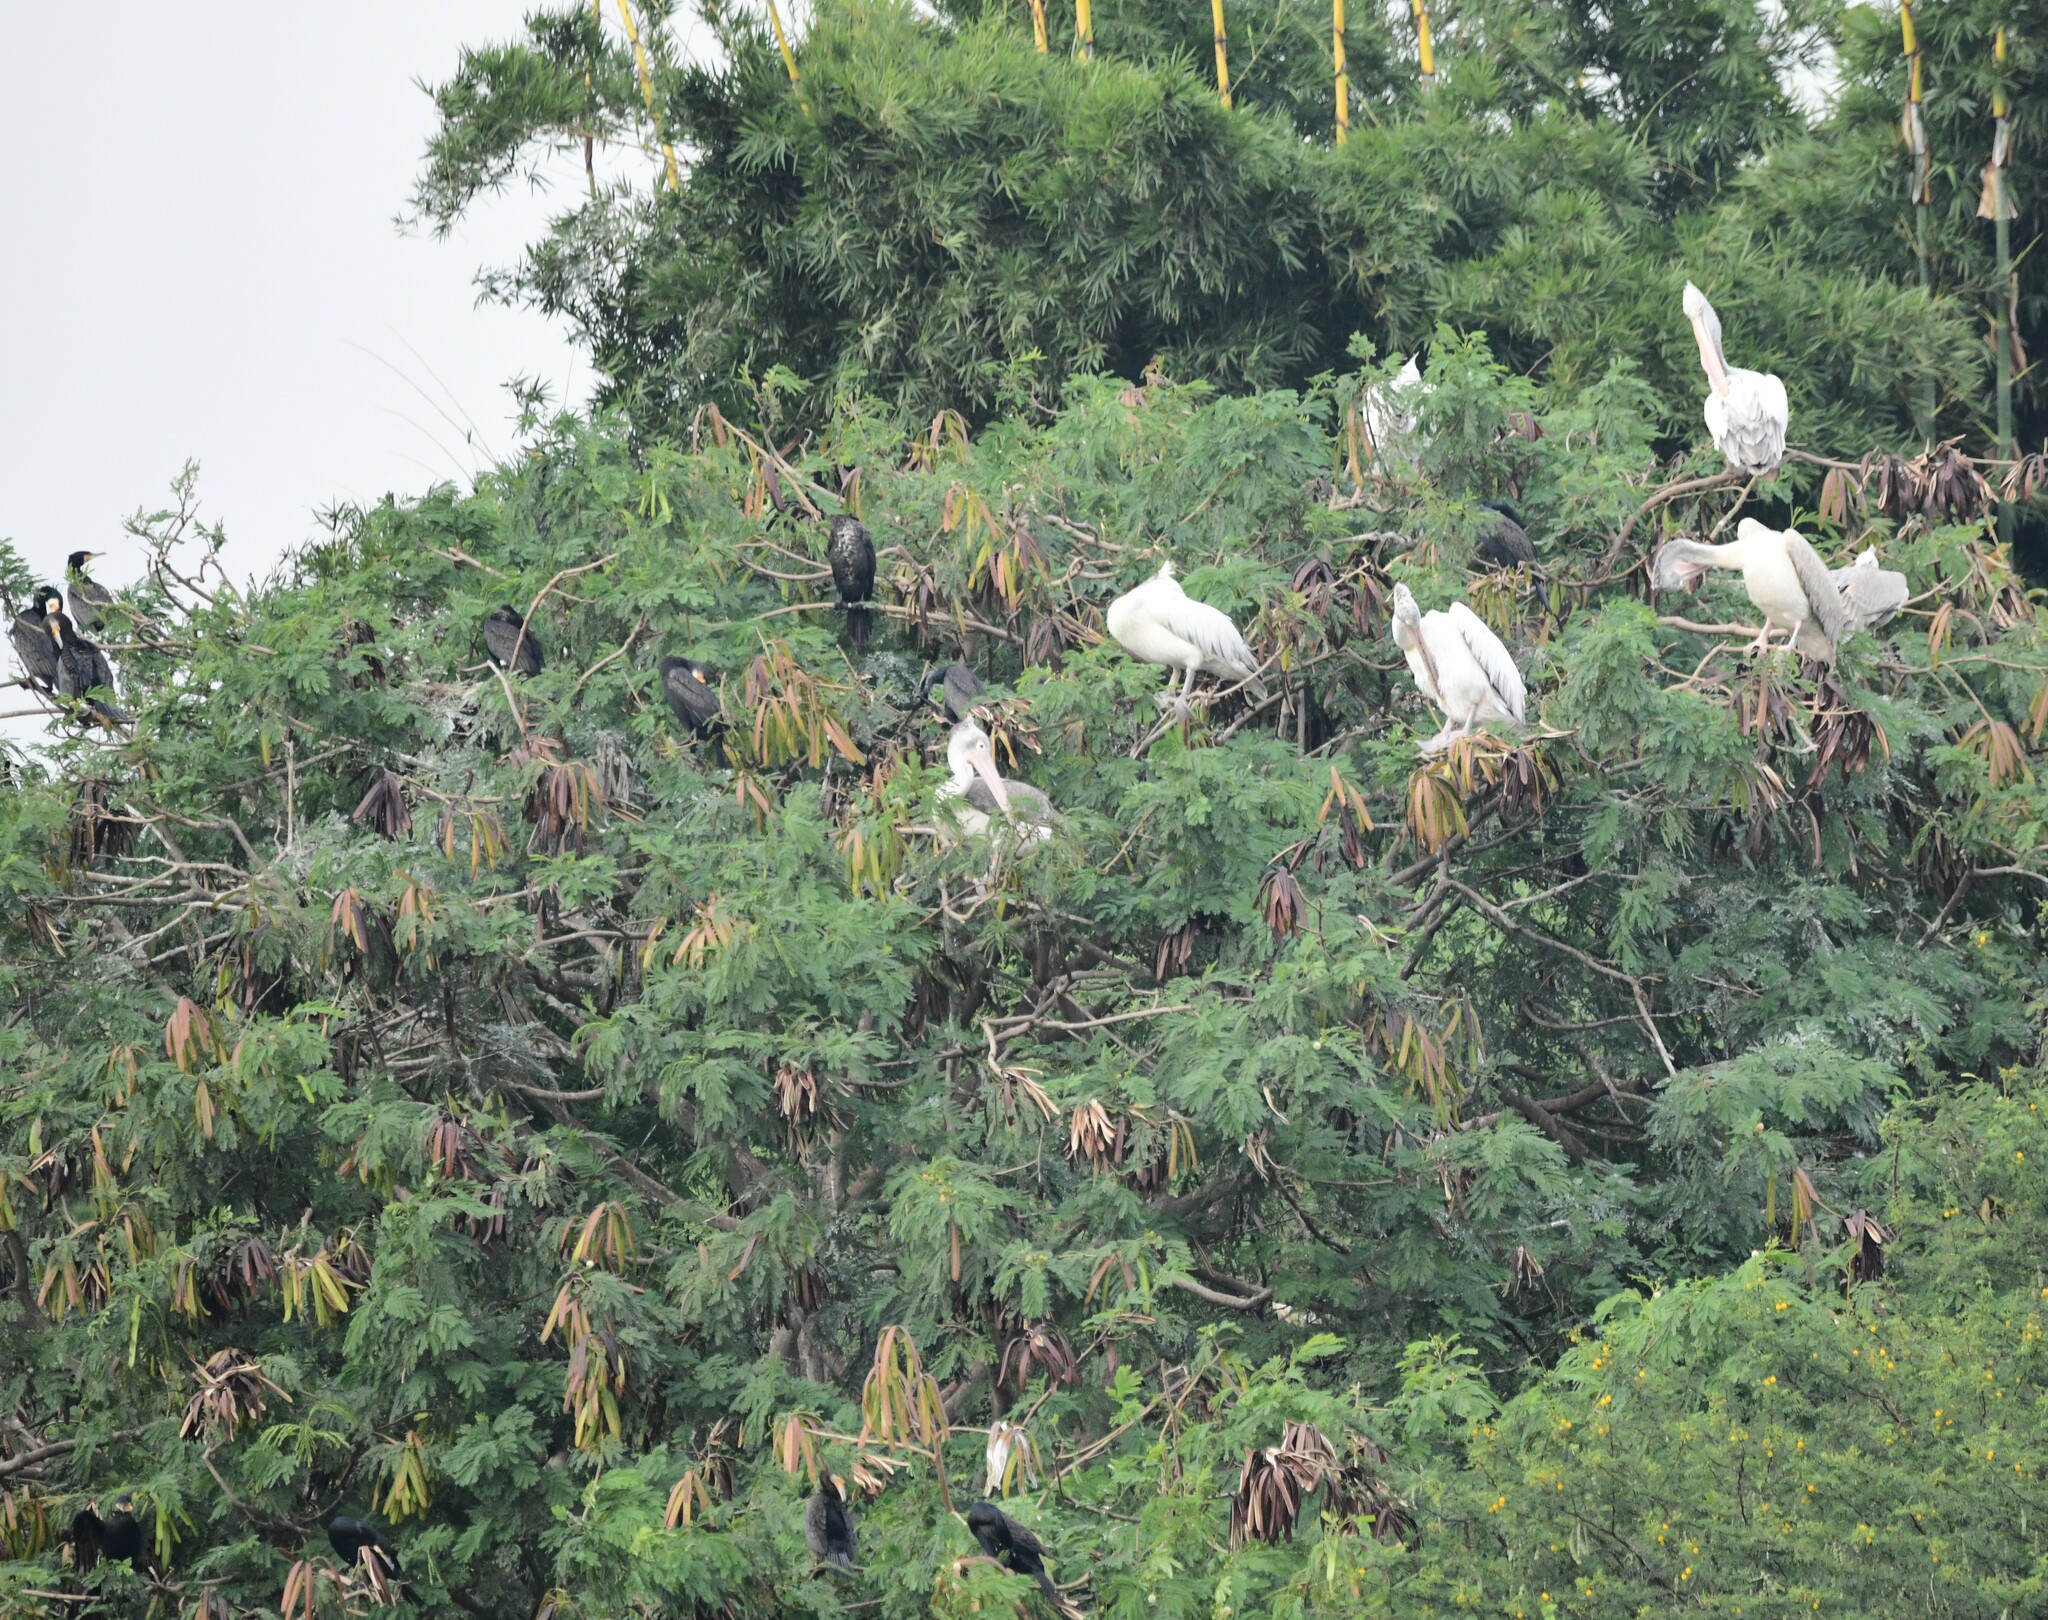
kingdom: Animalia
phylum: Chordata
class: Aves
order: Pelecaniformes
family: Pelecanidae
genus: Pelecanus
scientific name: Pelecanus philippensis
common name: Spot-billed pelican
